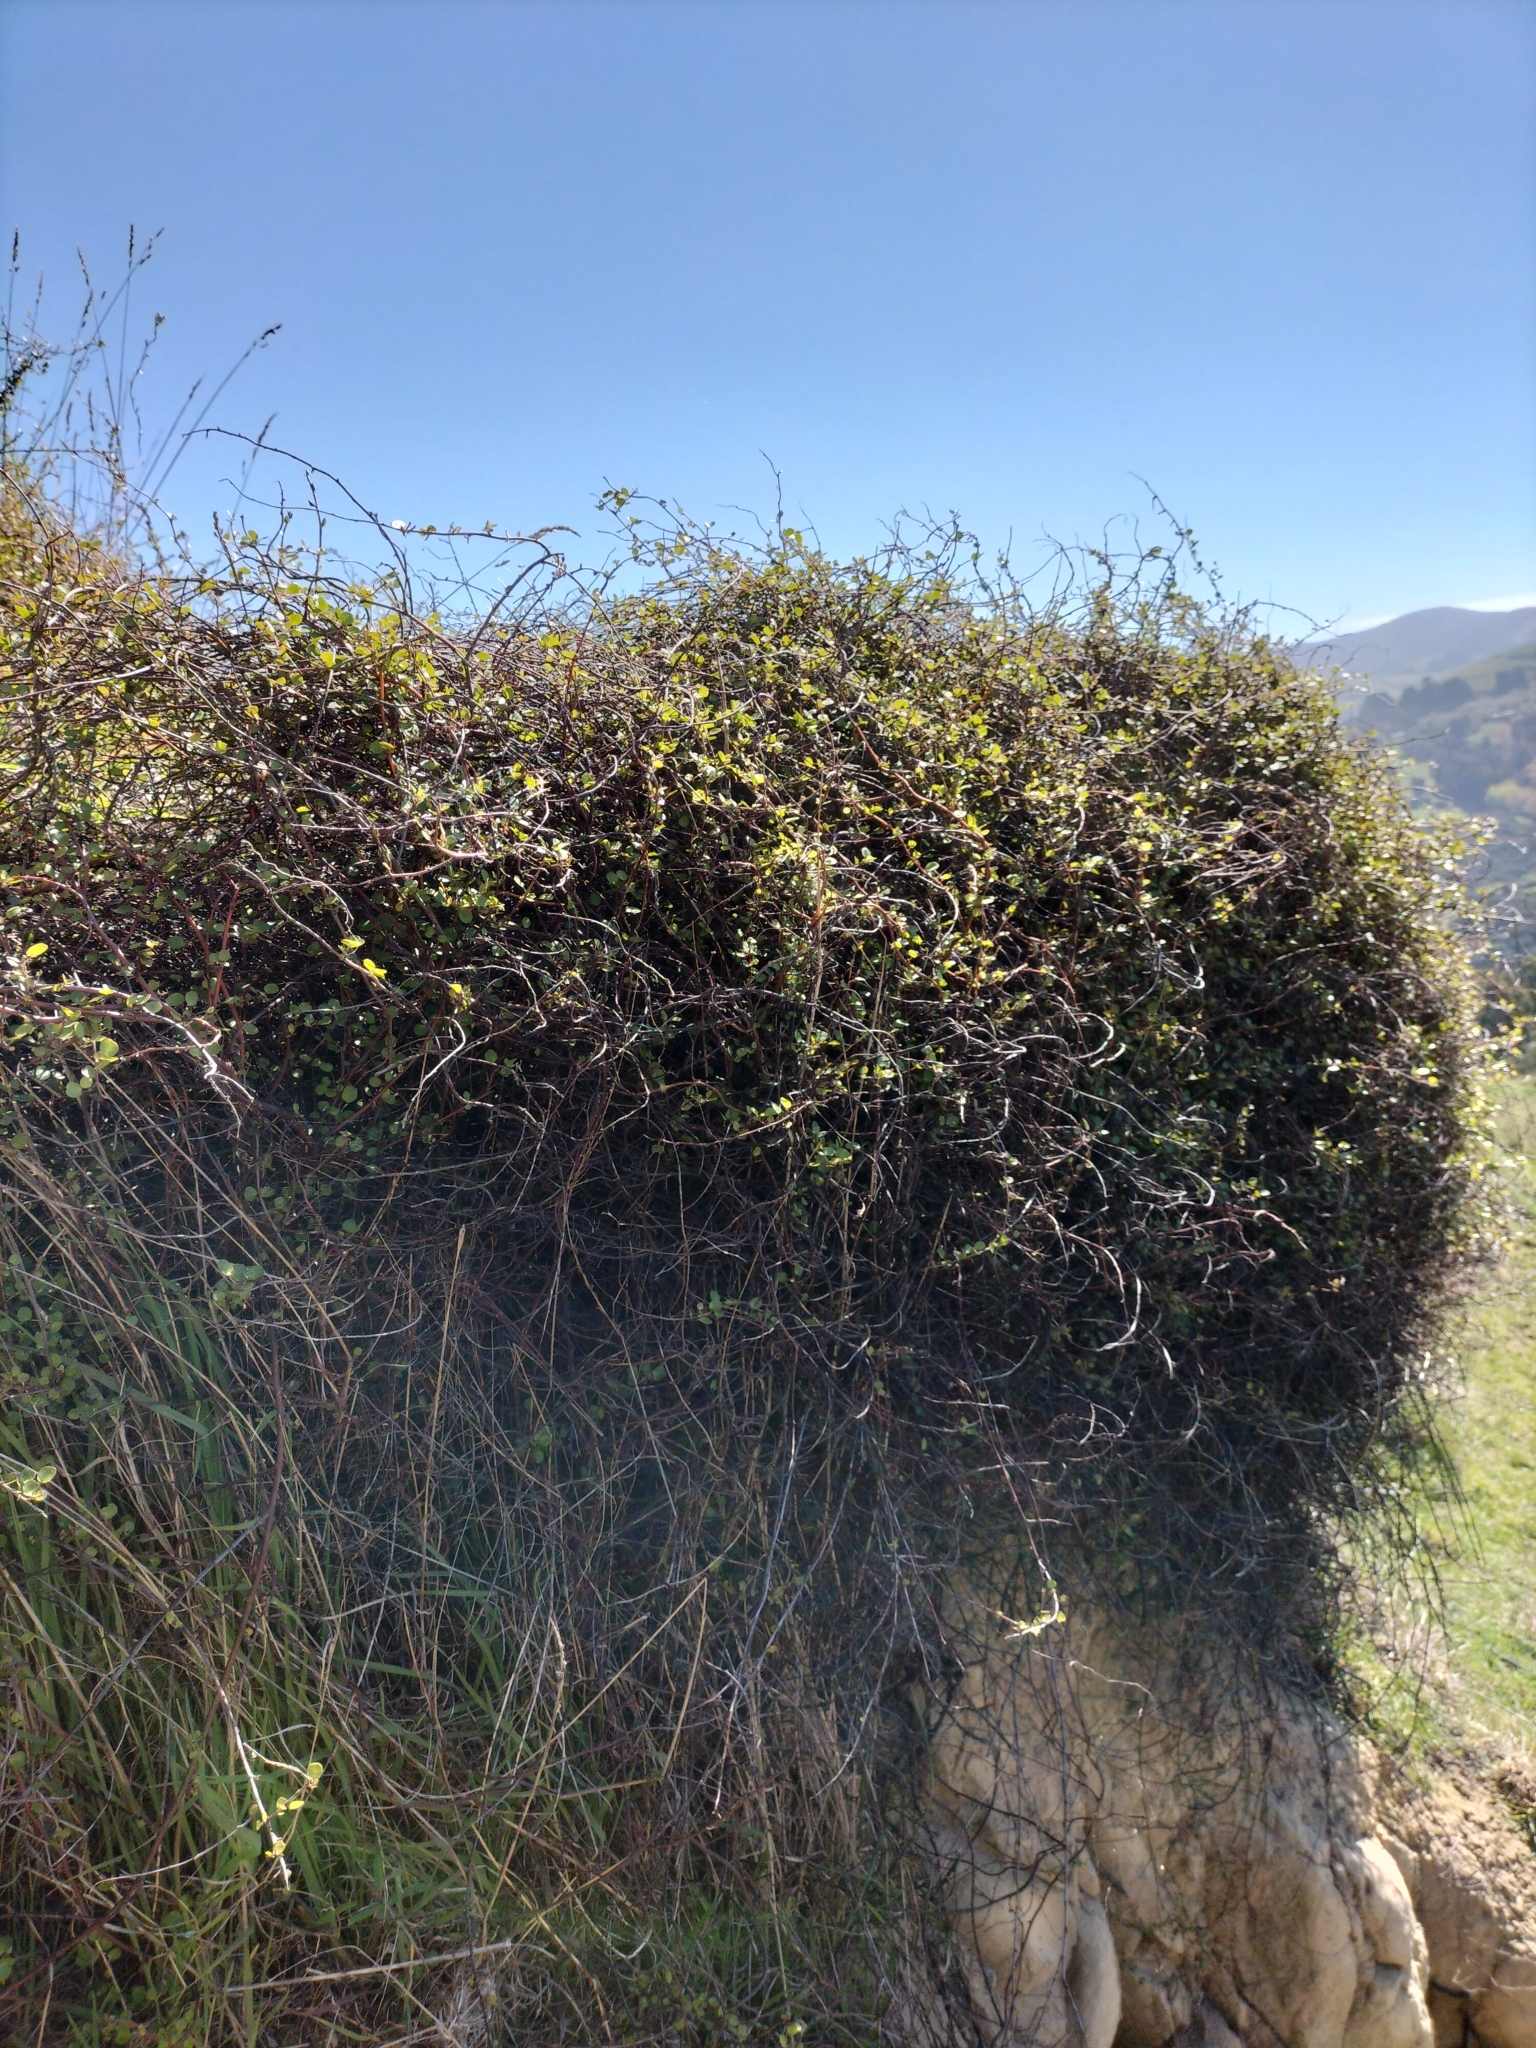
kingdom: Plantae
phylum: Tracheophyta
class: Magnoliopsida
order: Caryophyllales
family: Polygonaceae
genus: Muehlenbeckia
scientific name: Muehlenbeckia complexa
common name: Wireplant
